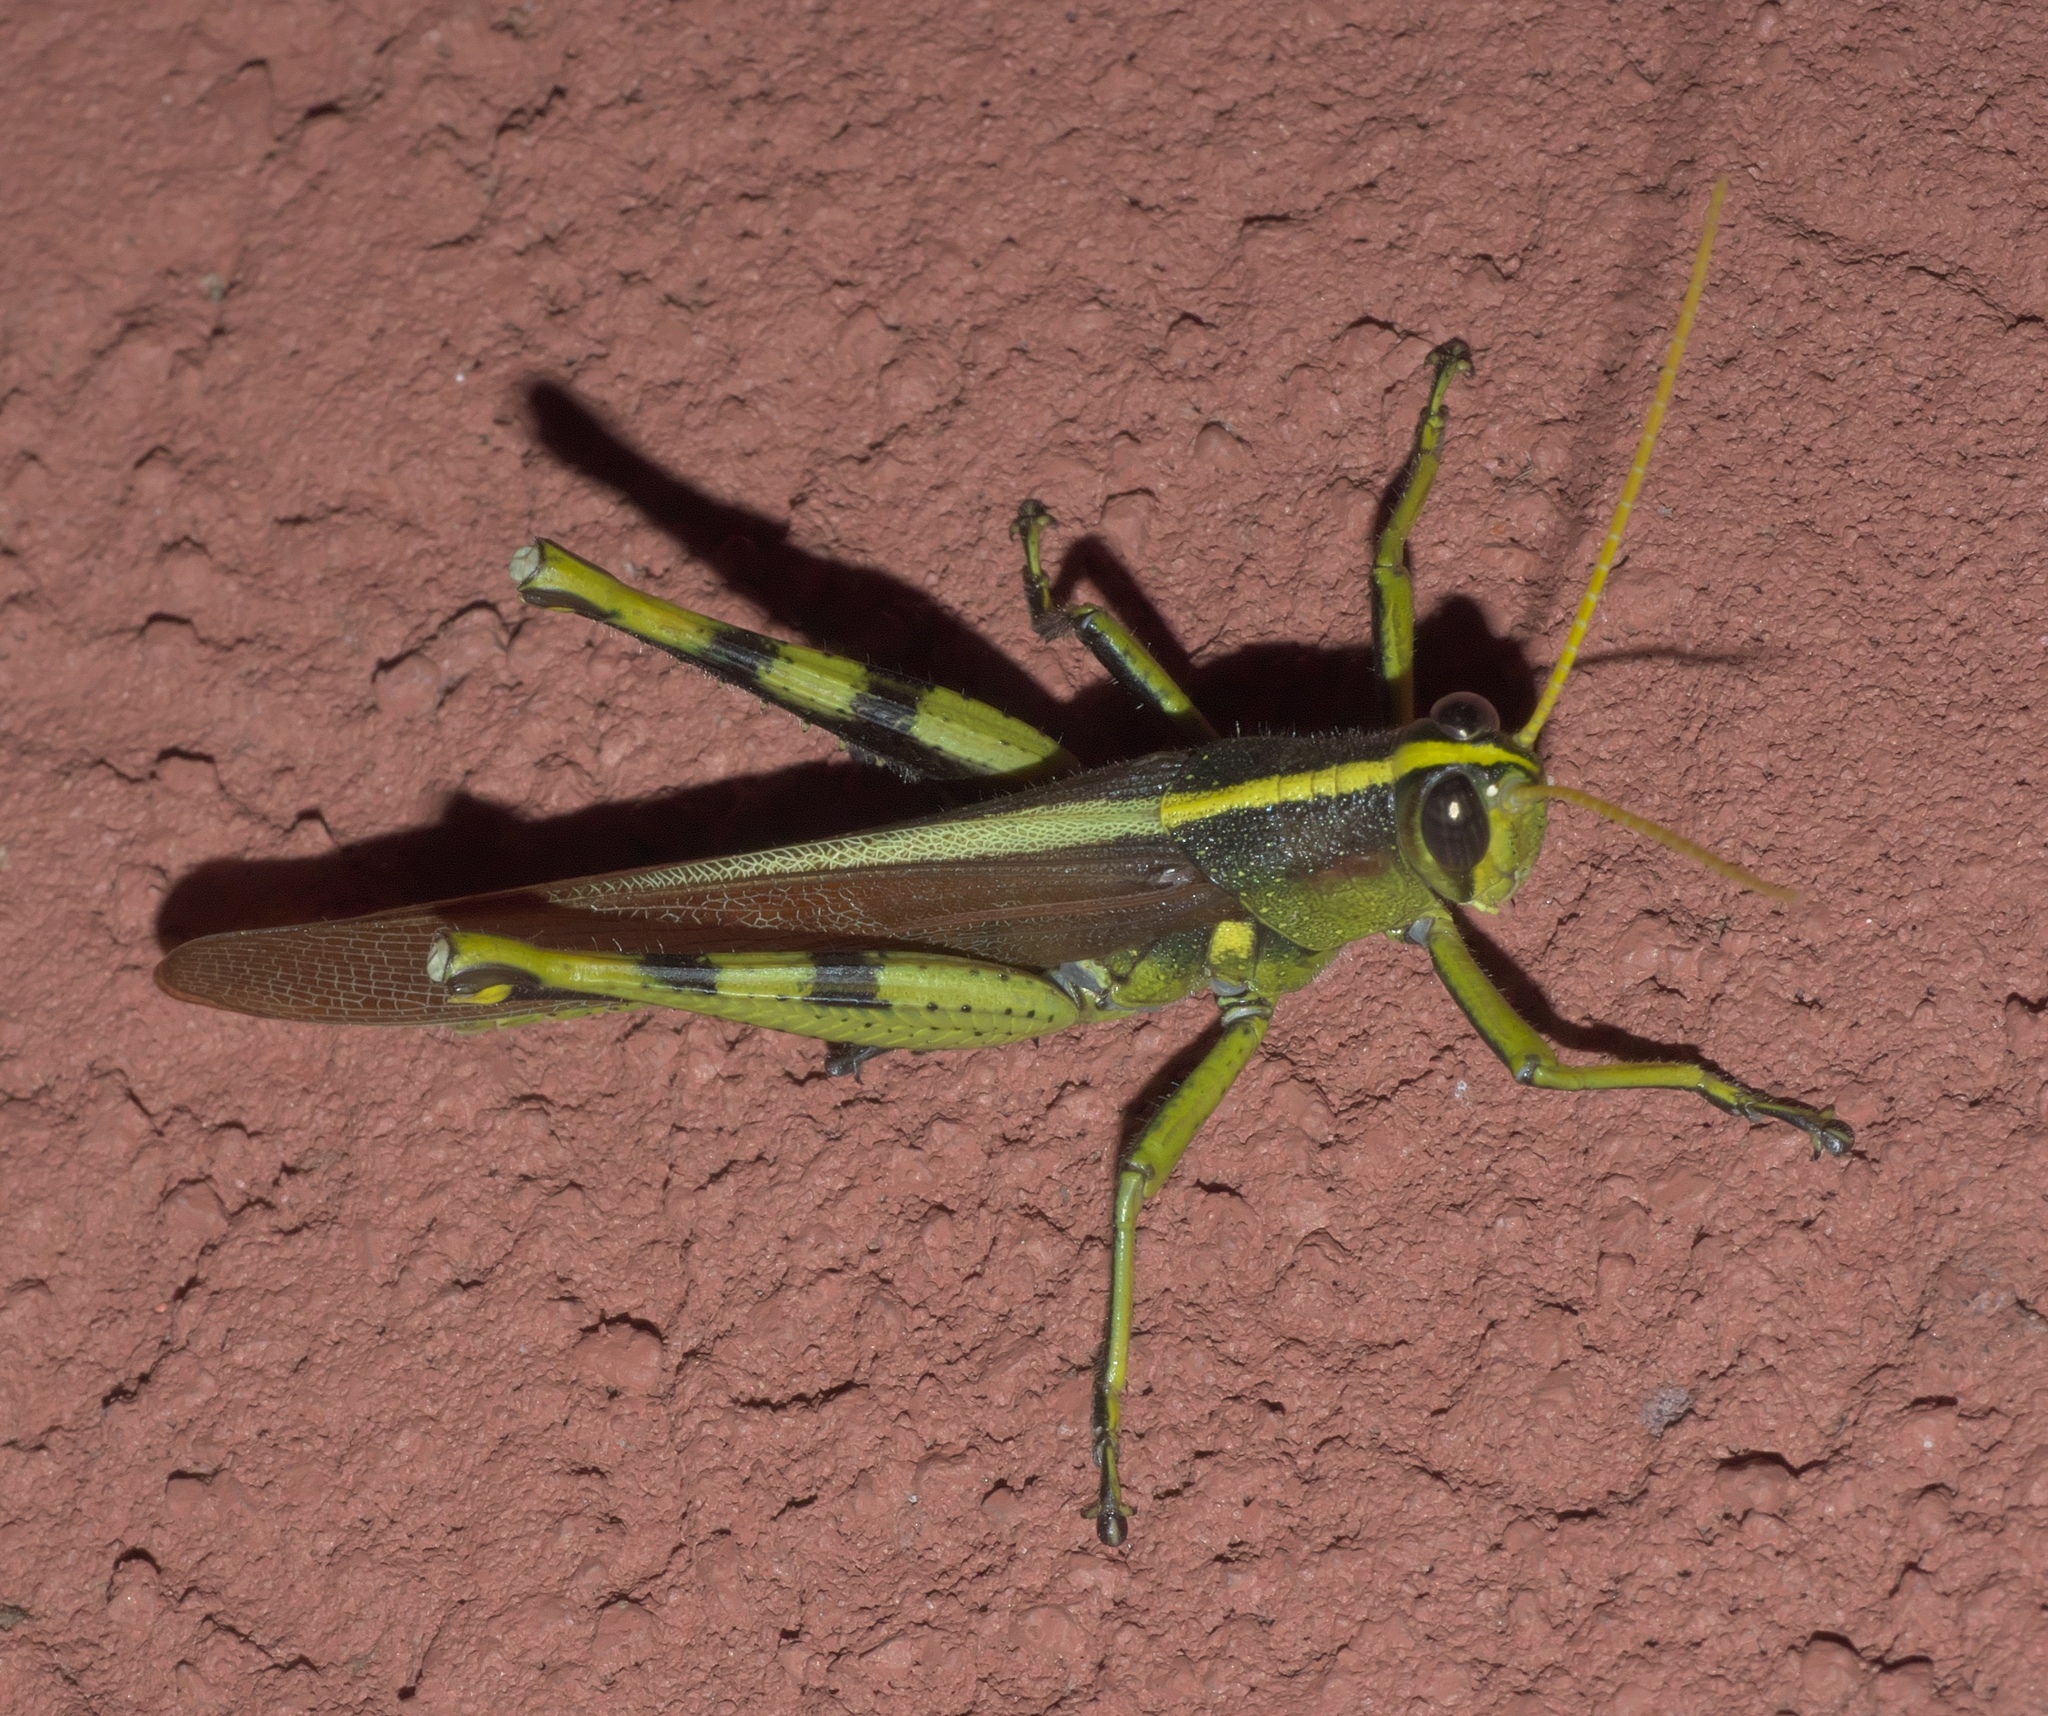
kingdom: Animalia
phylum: Arthropoda
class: Insecta
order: Orthoptera
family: Acrididae
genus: Schistocerca
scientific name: Schistocerca obscura
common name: Obscure bird grasshopper
